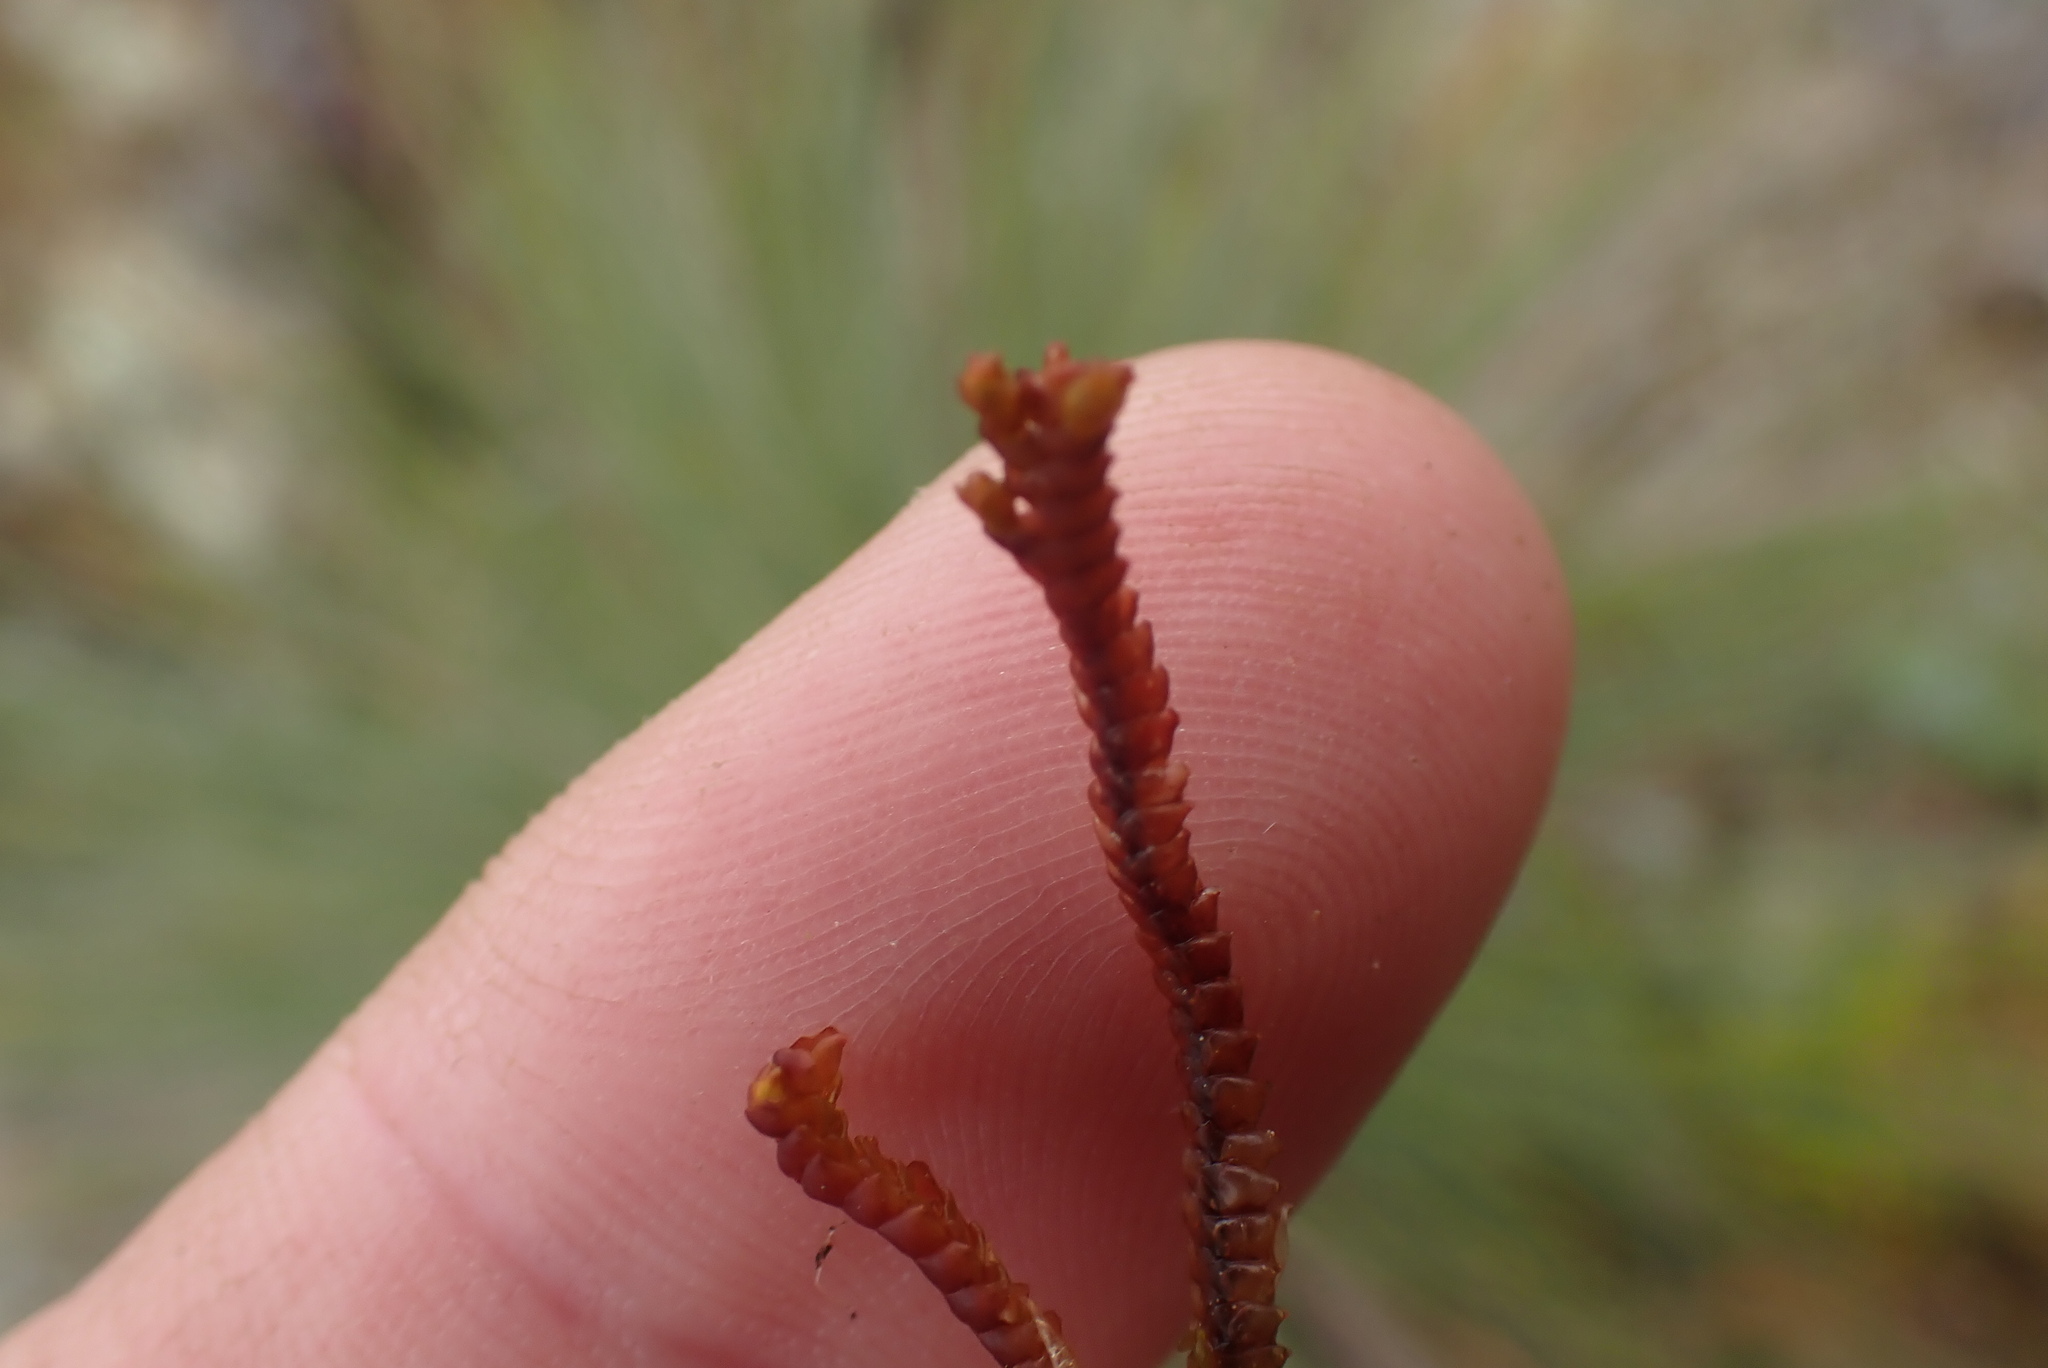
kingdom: Plantae
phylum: Marchantiophyta
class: Jungermanniopsida
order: Pleuroziales
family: Pleuroziaceae
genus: Pleurozia
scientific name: Pleurozia purpurea
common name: Purple spoonwort
